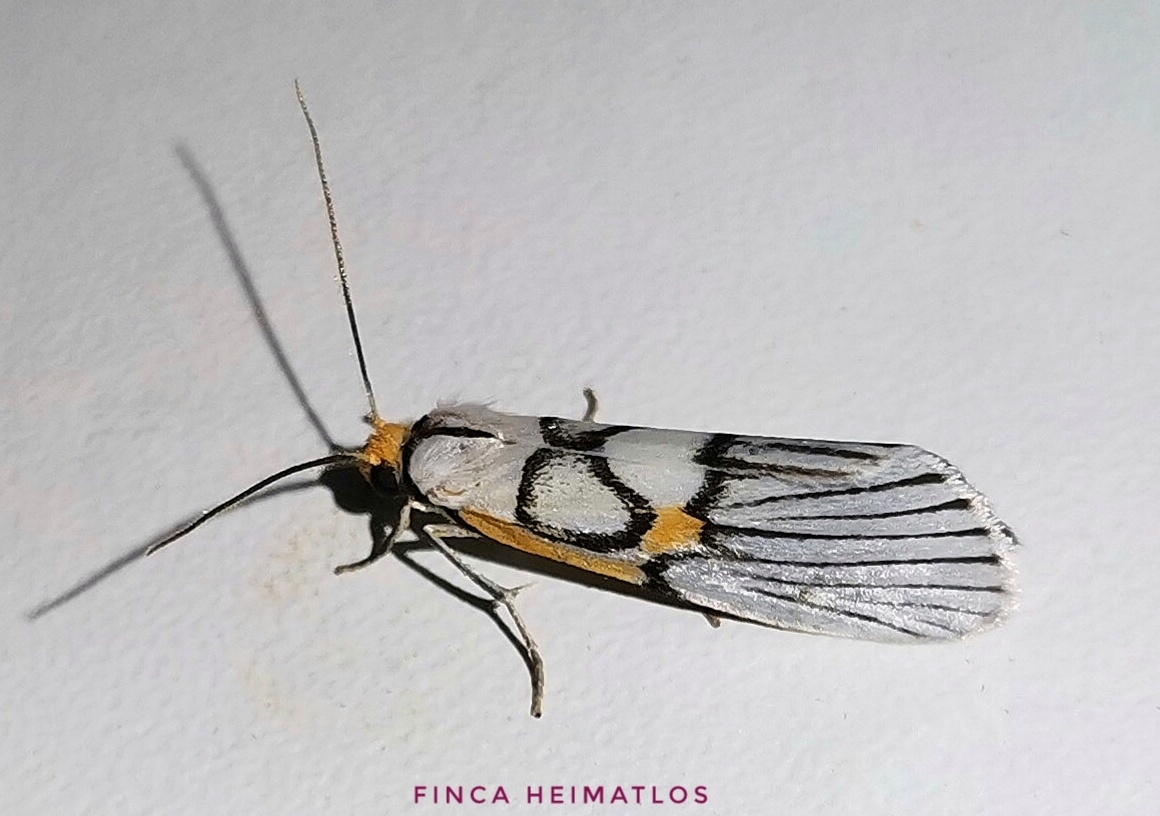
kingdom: Animalia
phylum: Arthropoda
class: Insecta
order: Lepidoptera
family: Notodontidae
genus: Scotura
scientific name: Scotura annulata
